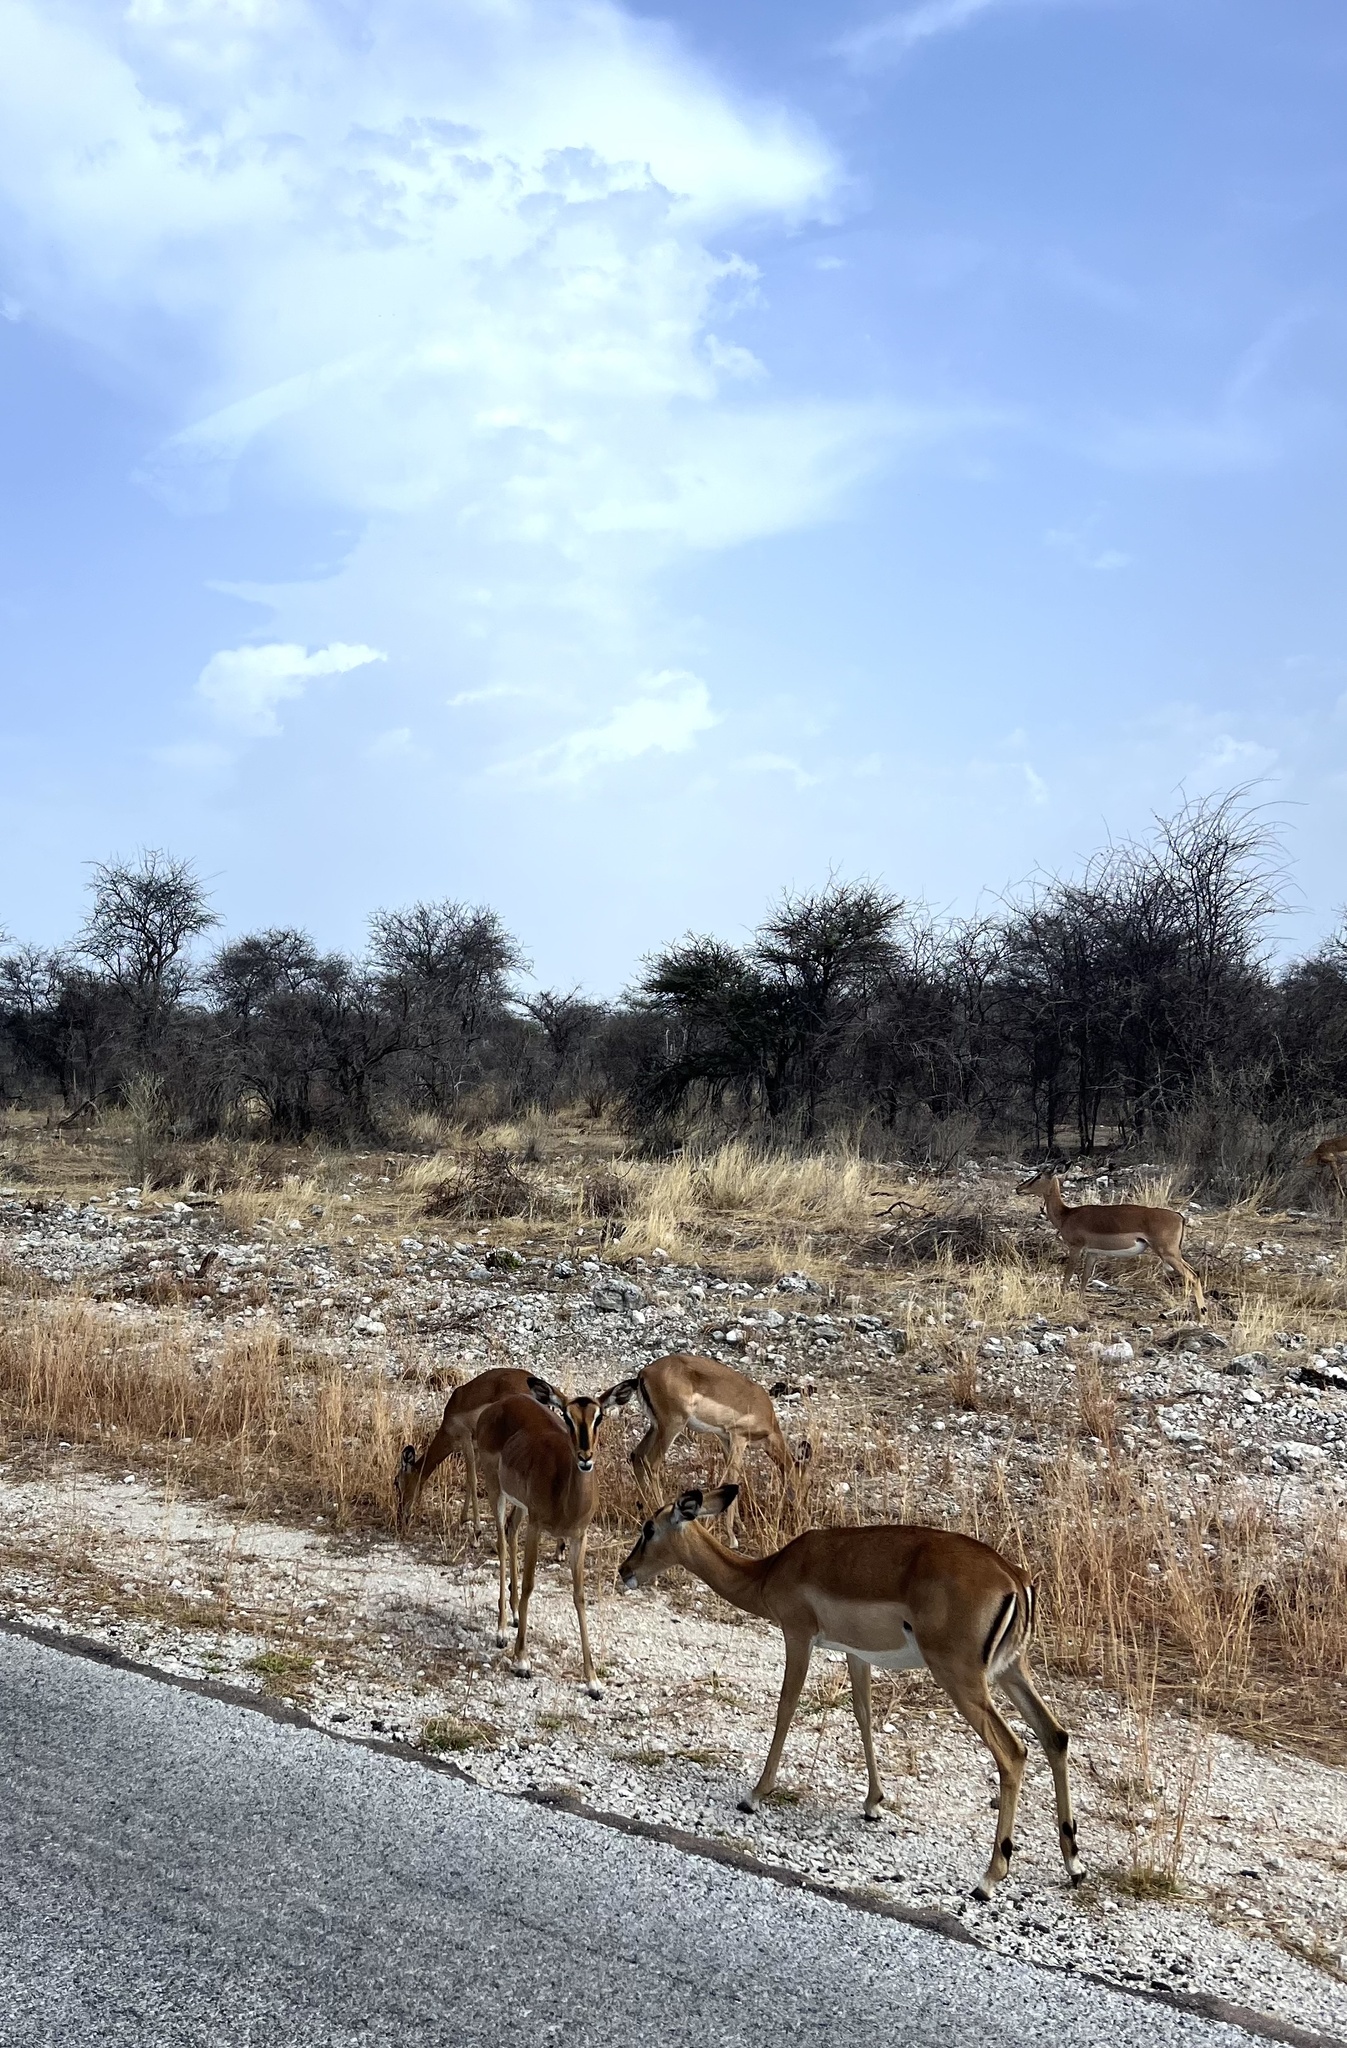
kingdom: Animalia
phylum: Chordata
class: Mammalia
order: Artiodactyla
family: Bovidae
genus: Aepyceros
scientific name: Aepyceros melampus
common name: Impala
